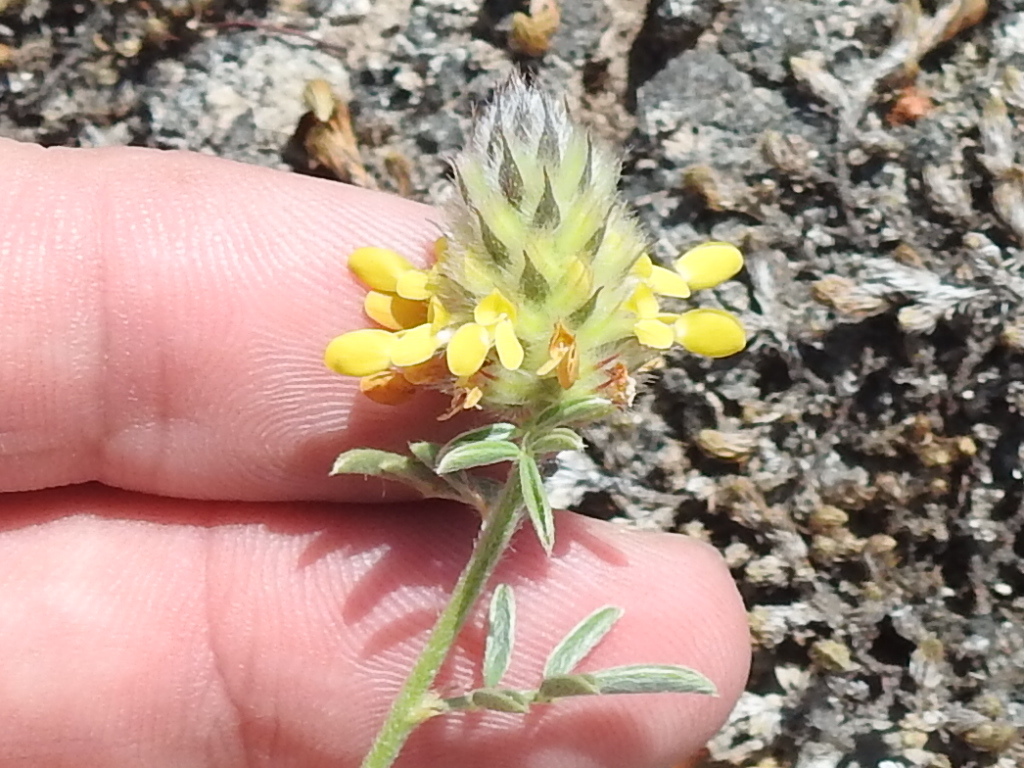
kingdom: Plantae
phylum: Tracheophyta
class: Magnoliopsida
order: Fabales
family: Fabaceae
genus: Dalea
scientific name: Dalea nana
